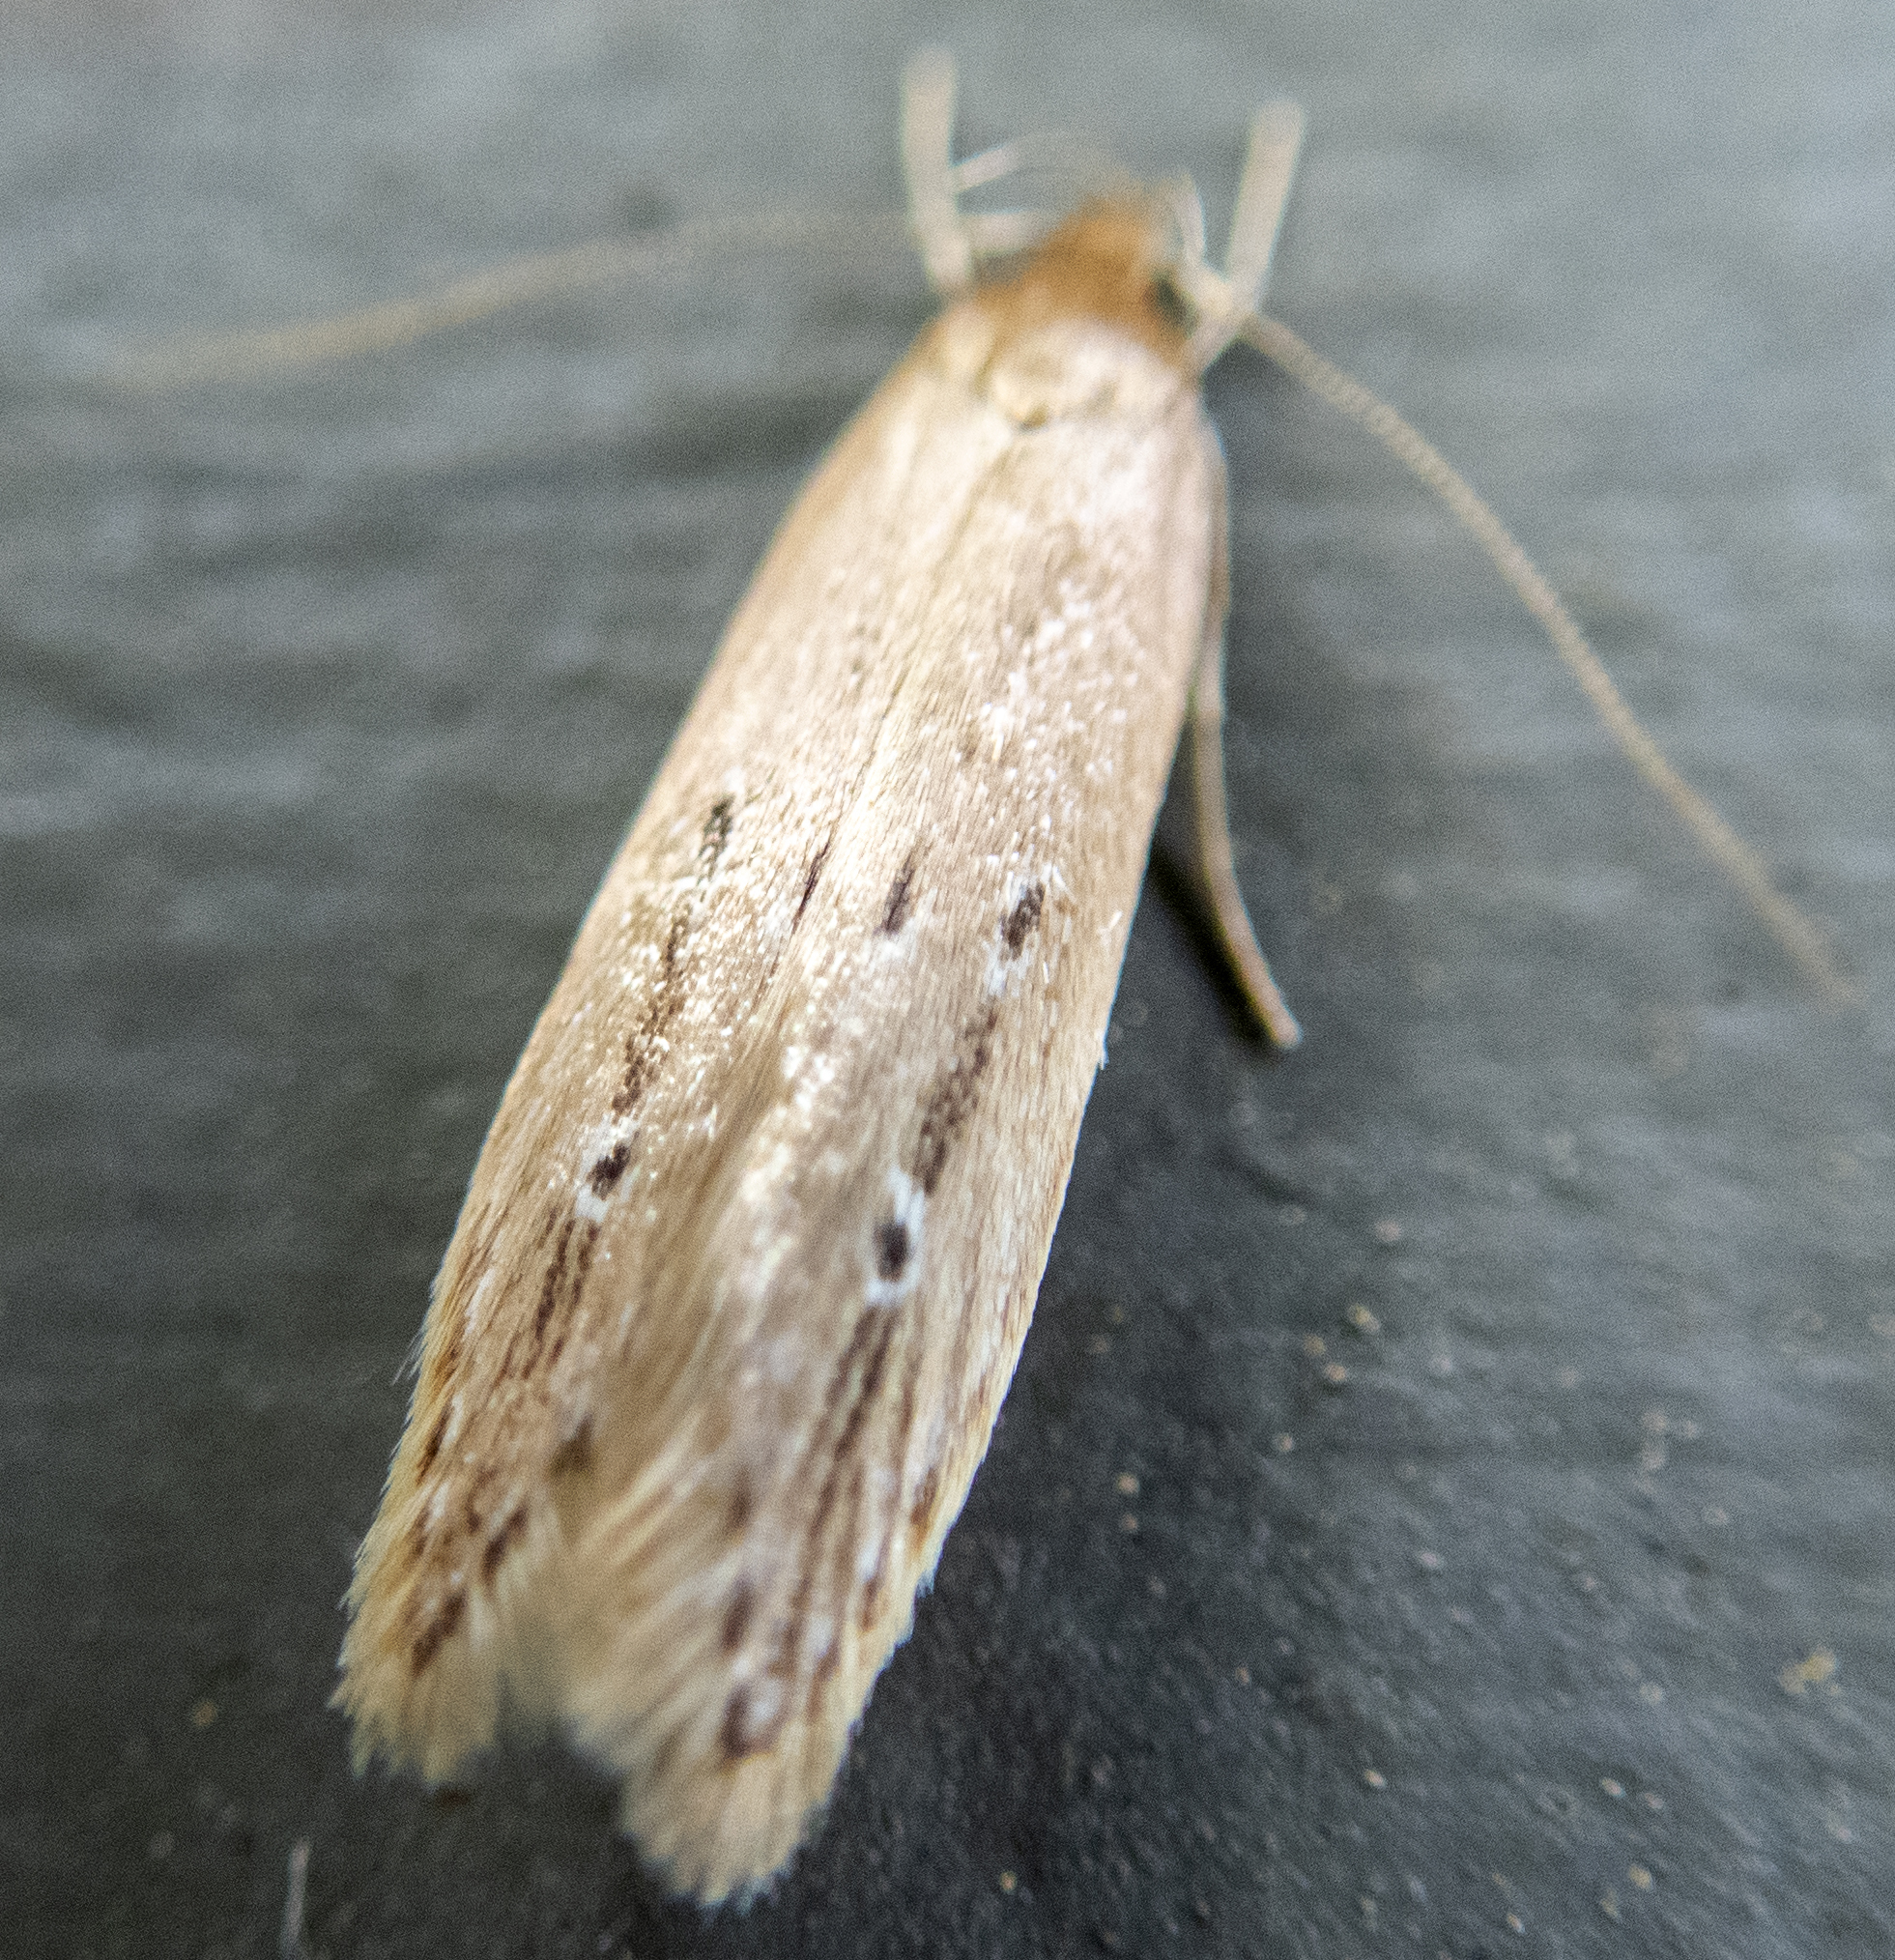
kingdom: Animalia
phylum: Arthropoda
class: Insecta
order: Lepidoptera
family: Cosmopterigidae
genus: Limnaecia
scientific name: Limnaecia phragmitella
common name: Bulrush cosmet
